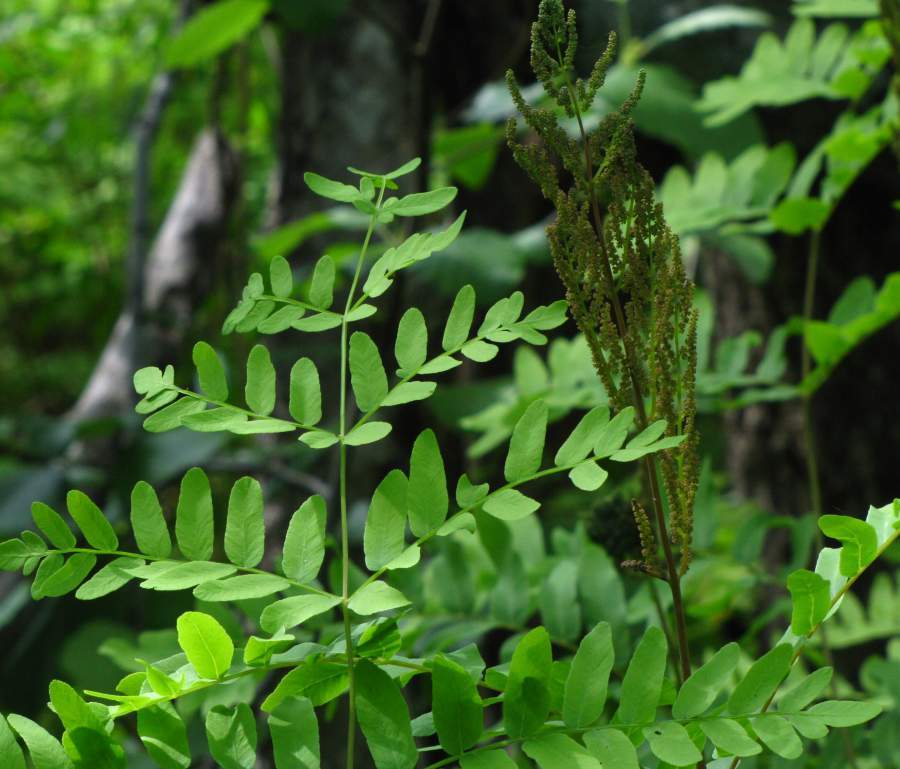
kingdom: Plantae
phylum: Tracheophyta
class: Polypodiopsida
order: Osmundales
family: Osmundaceae
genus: Osmunda
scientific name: Osmunda spectabilis
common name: American royal fern
